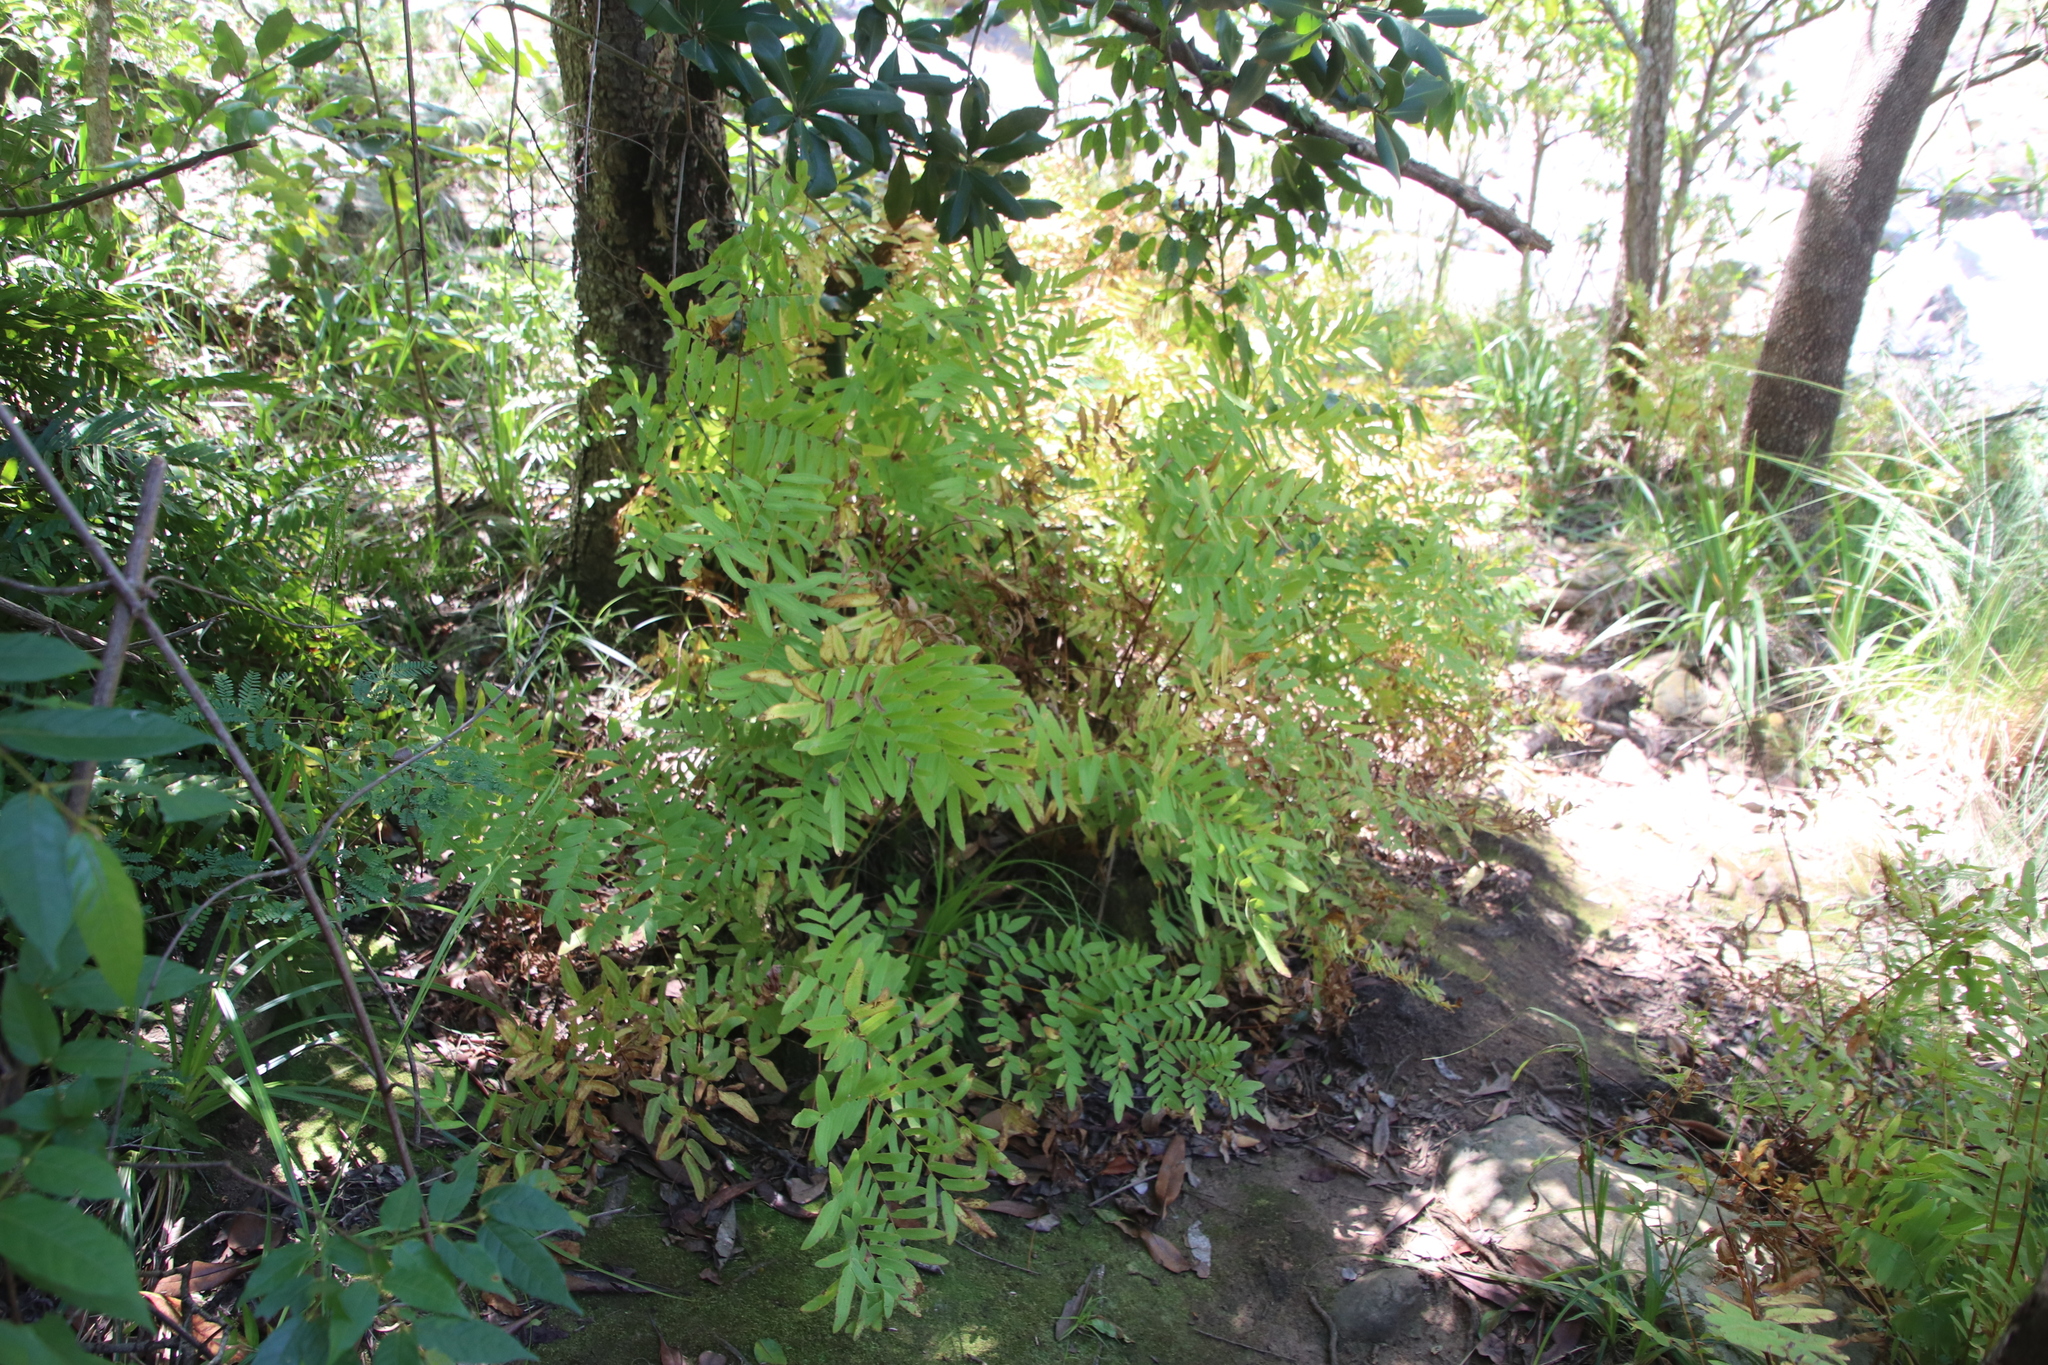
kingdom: Plantae
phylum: Tracheophyta
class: Polypodiopsida
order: Osmundales
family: Osmundaceae
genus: Osmunda
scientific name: Osmunda acuta
